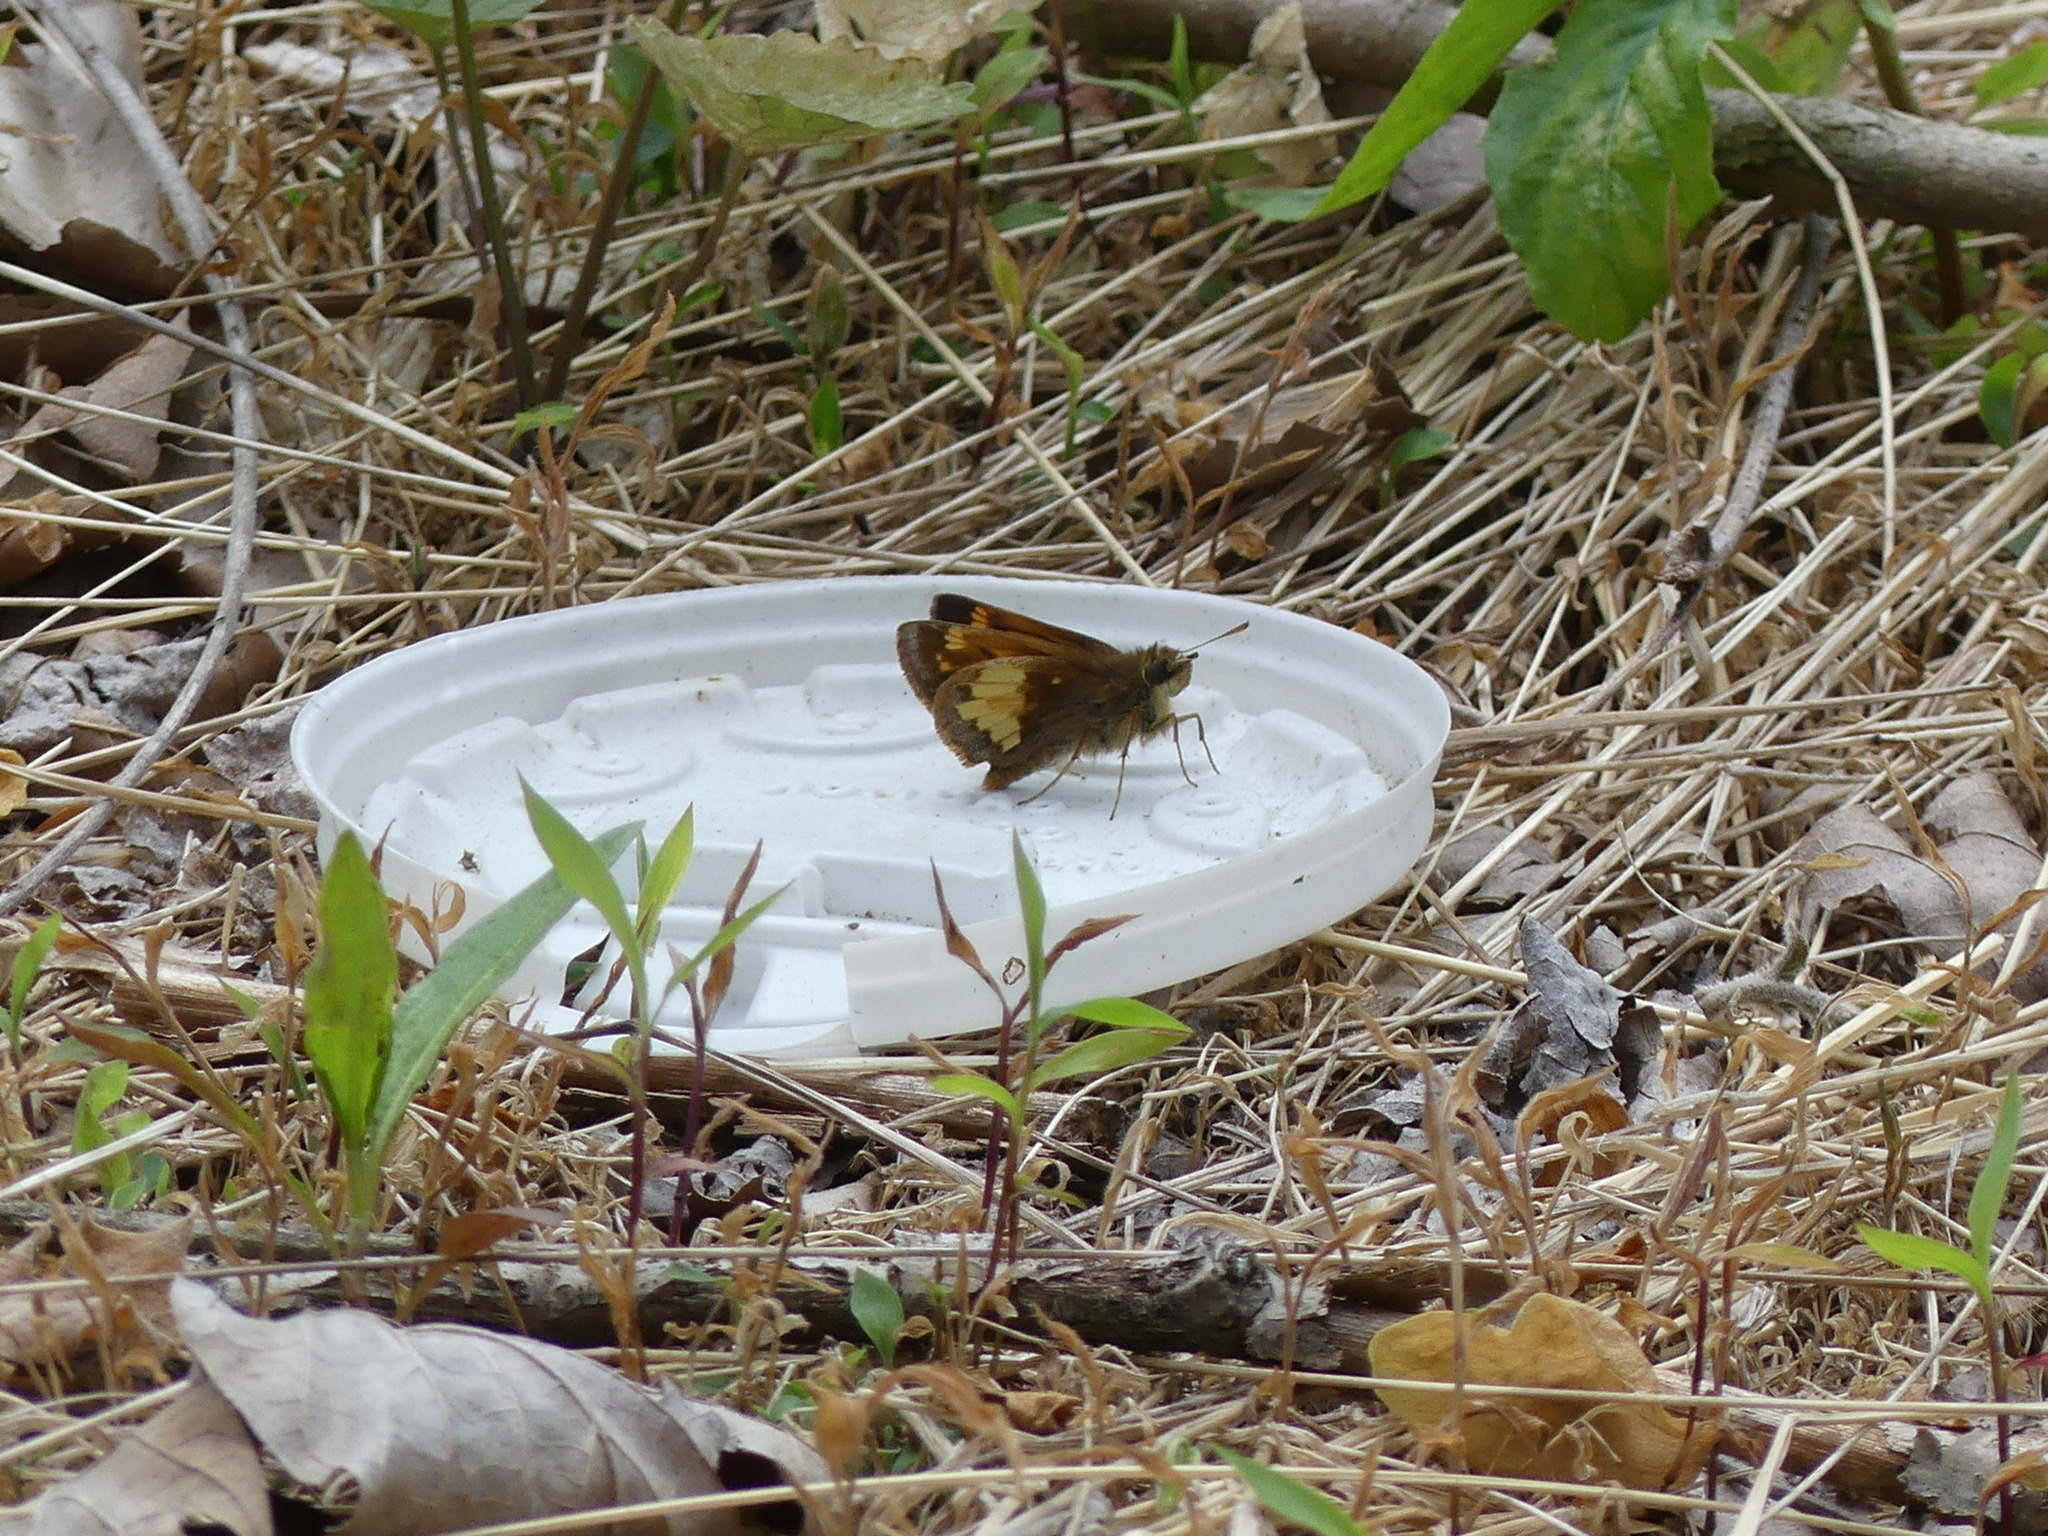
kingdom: Animalia
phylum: Arthropoda
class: Insecta
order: Lepidoptera
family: Hesperiidae
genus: Lon
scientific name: Lon hobomok
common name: Hobomok skipper
